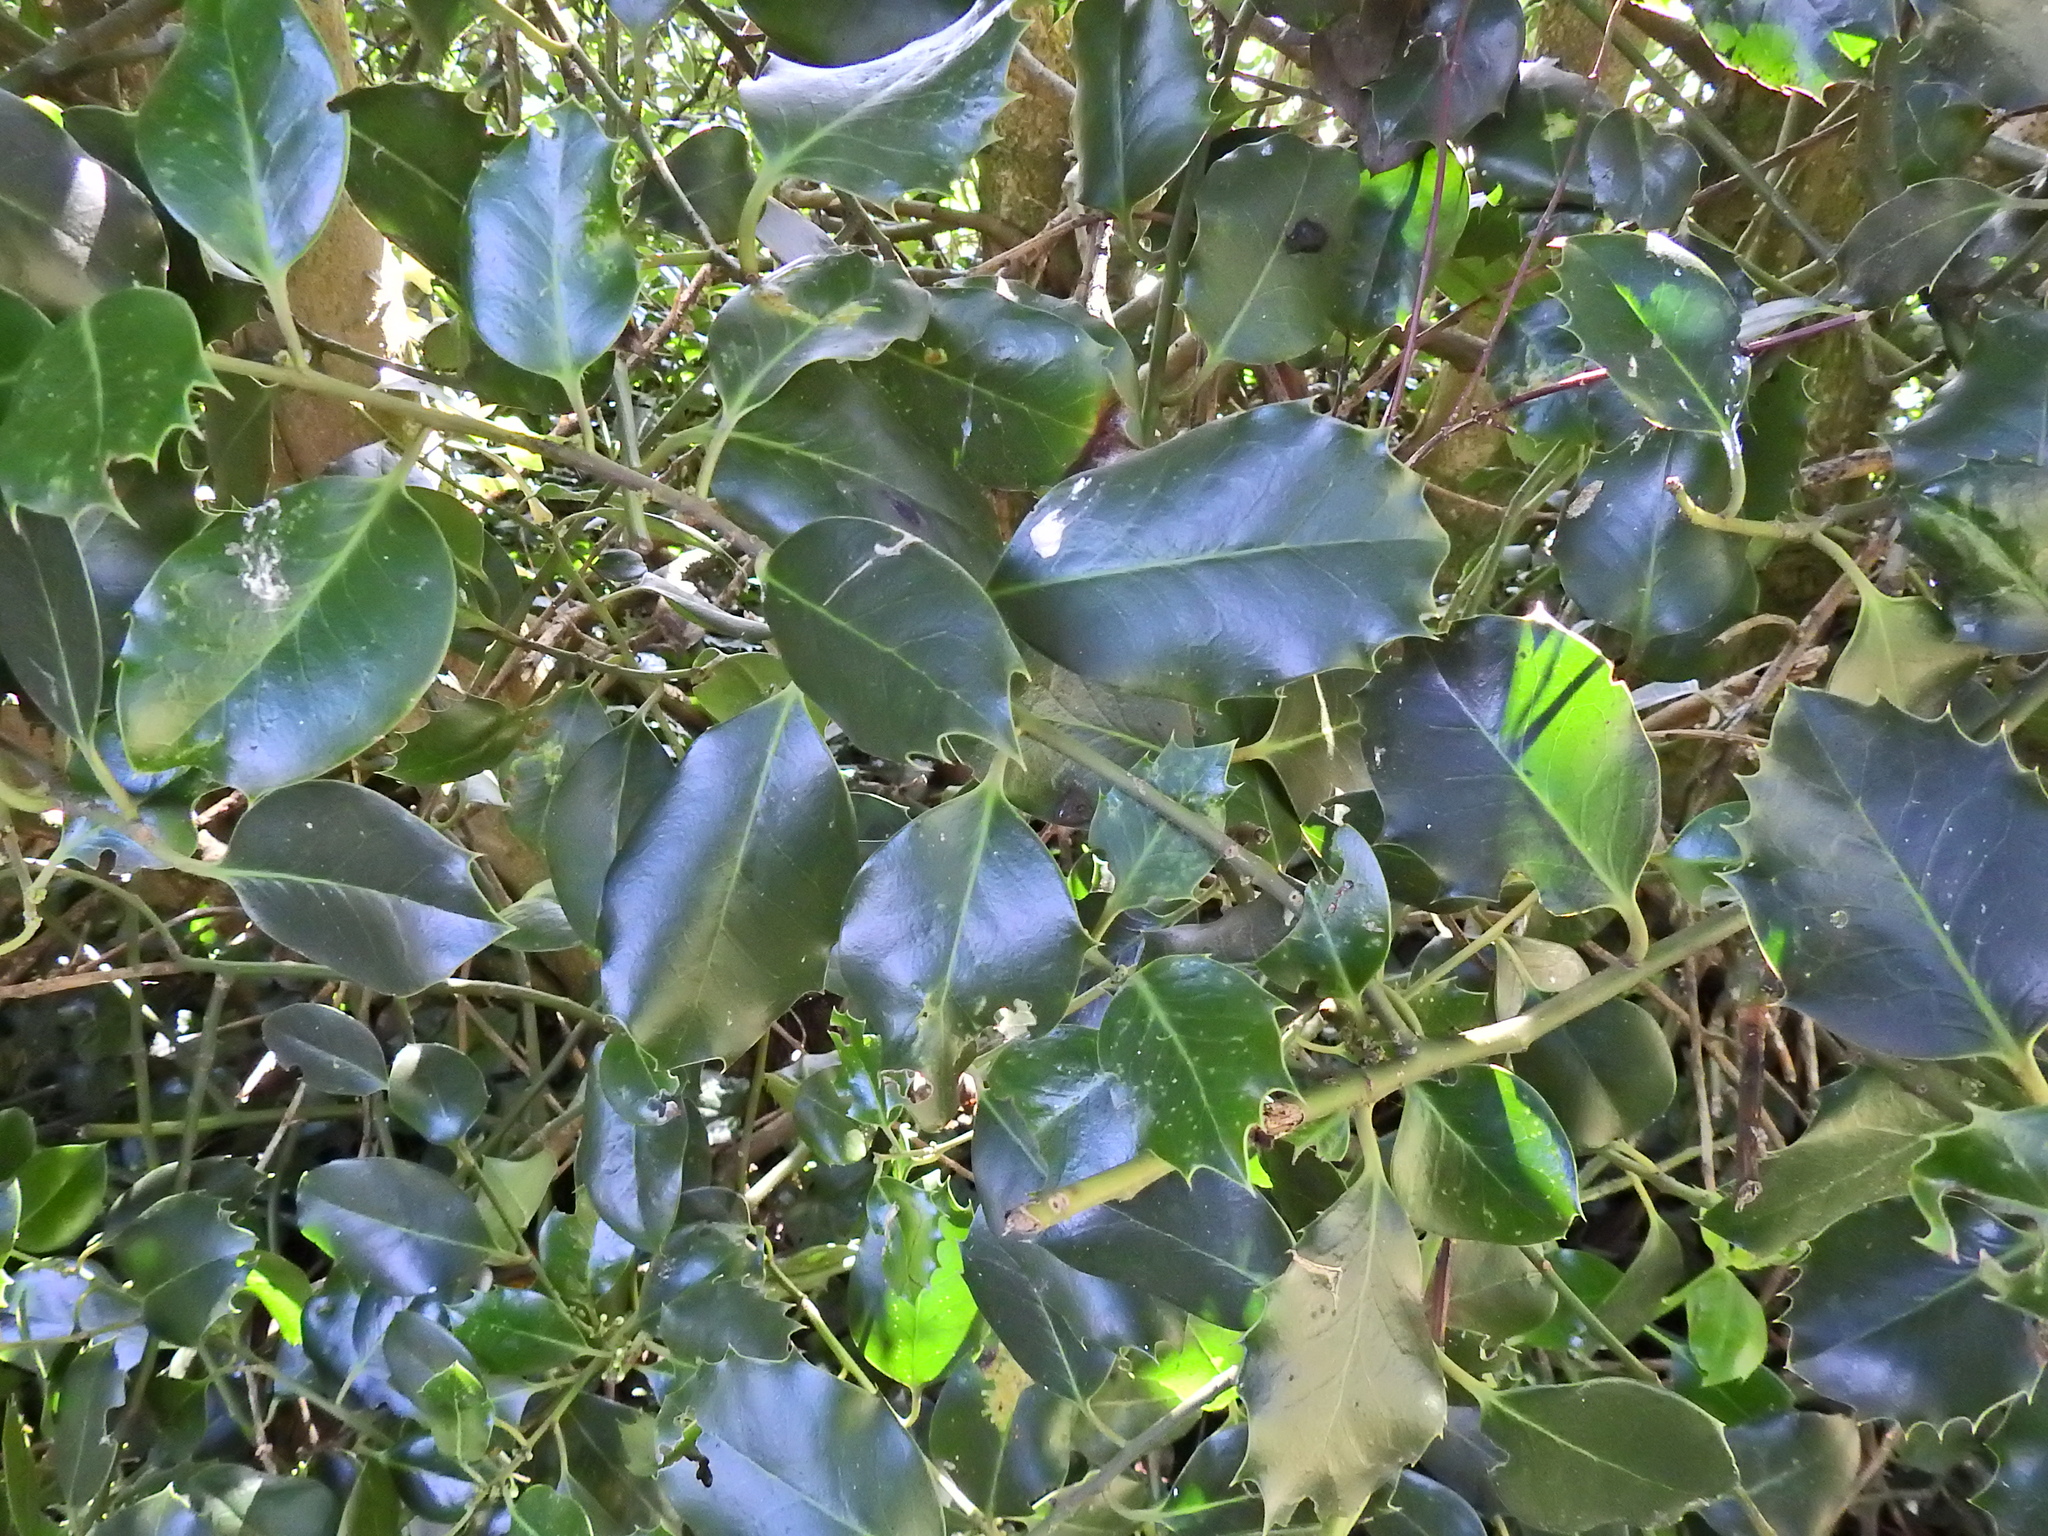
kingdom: Plantae
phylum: Tracheophyta
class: Magnoliopsida
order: Aquifoliales
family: Aquifoliaceae
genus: Ilex
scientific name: Ilex aquifolium
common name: English holly
